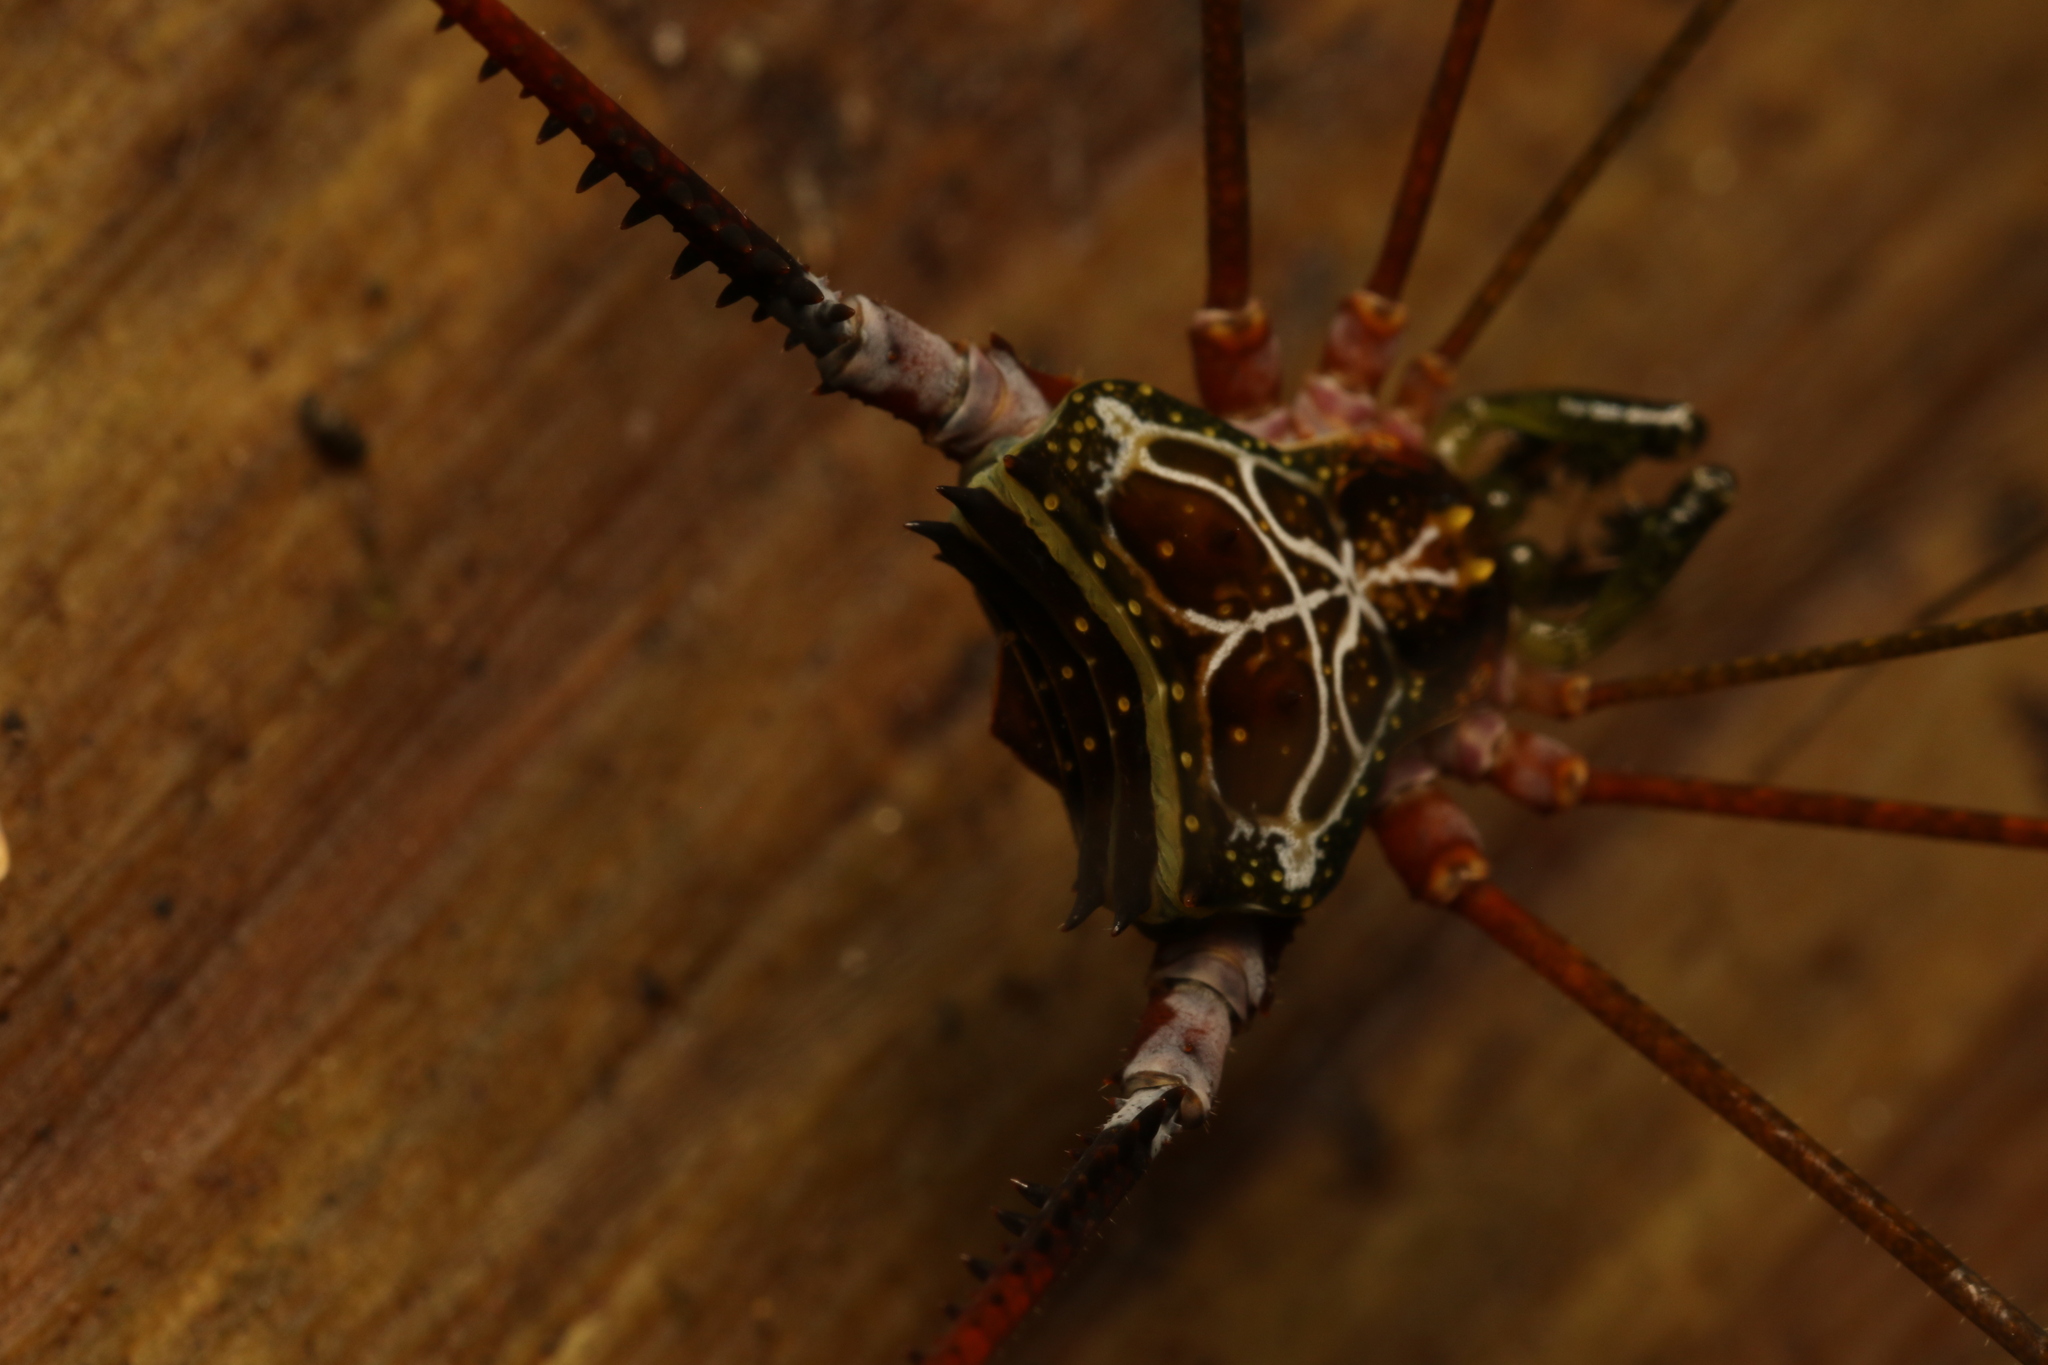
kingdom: Animalia
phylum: Arthropoda
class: Arachnida
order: Opiliones
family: Gonyleptidae
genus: Serracutisoma
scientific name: Serracutisoma proximum
